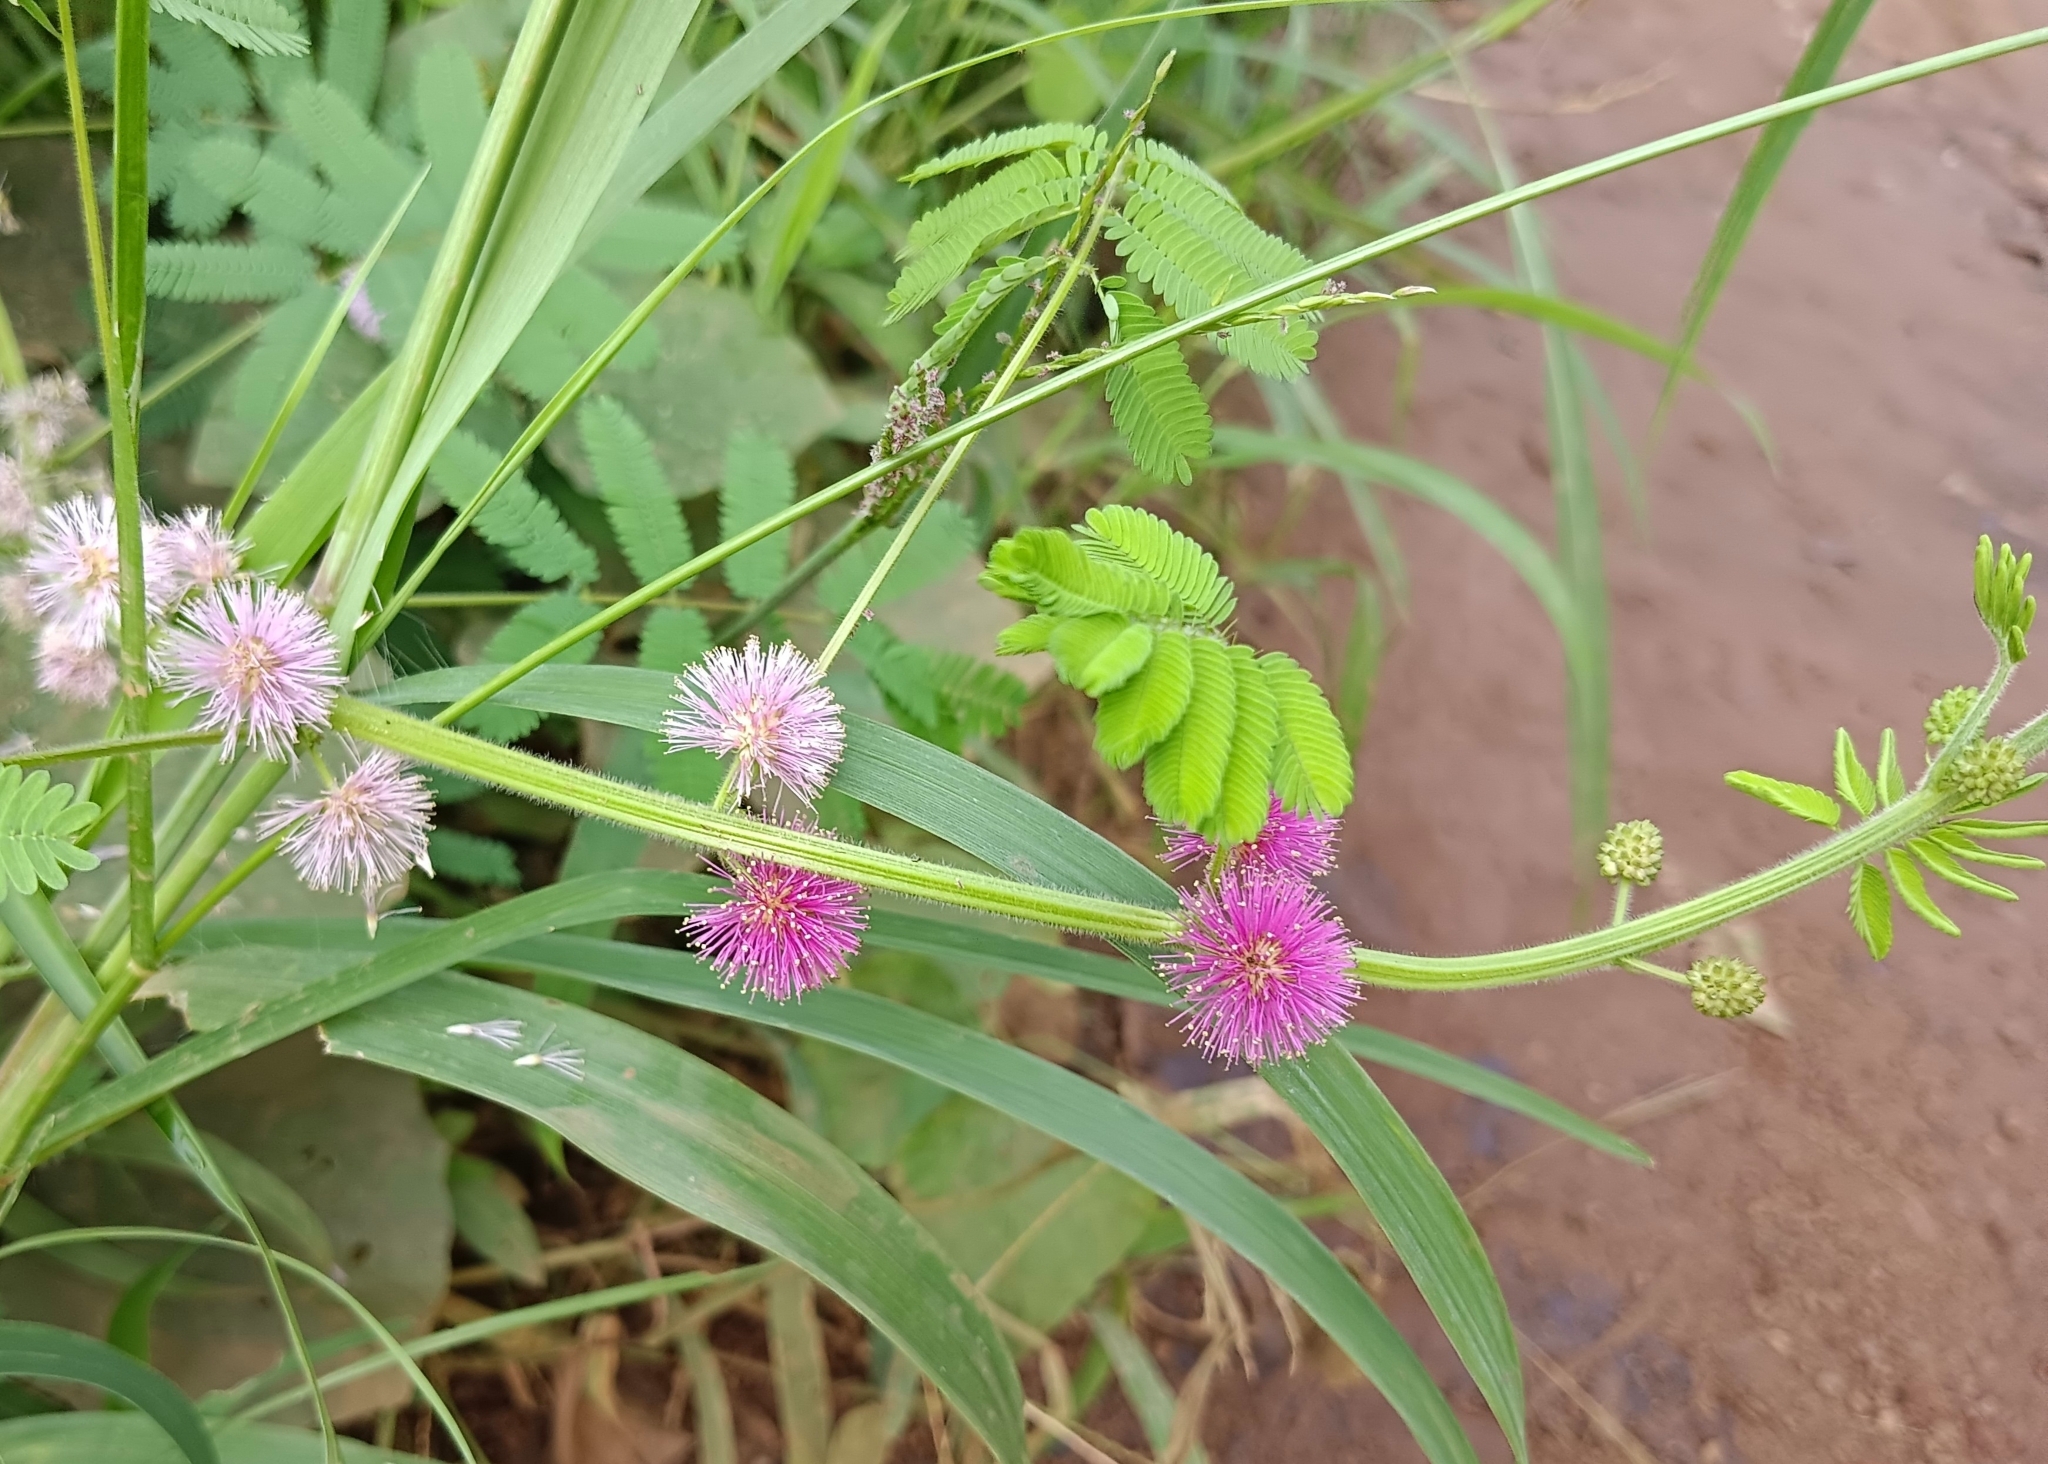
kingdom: Plantae
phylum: Tracheophyta
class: Magnoliopsida
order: Fabales
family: Fabaceae
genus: Mimosa
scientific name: Mimosa diplotricha
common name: Giant sensitive-plant
